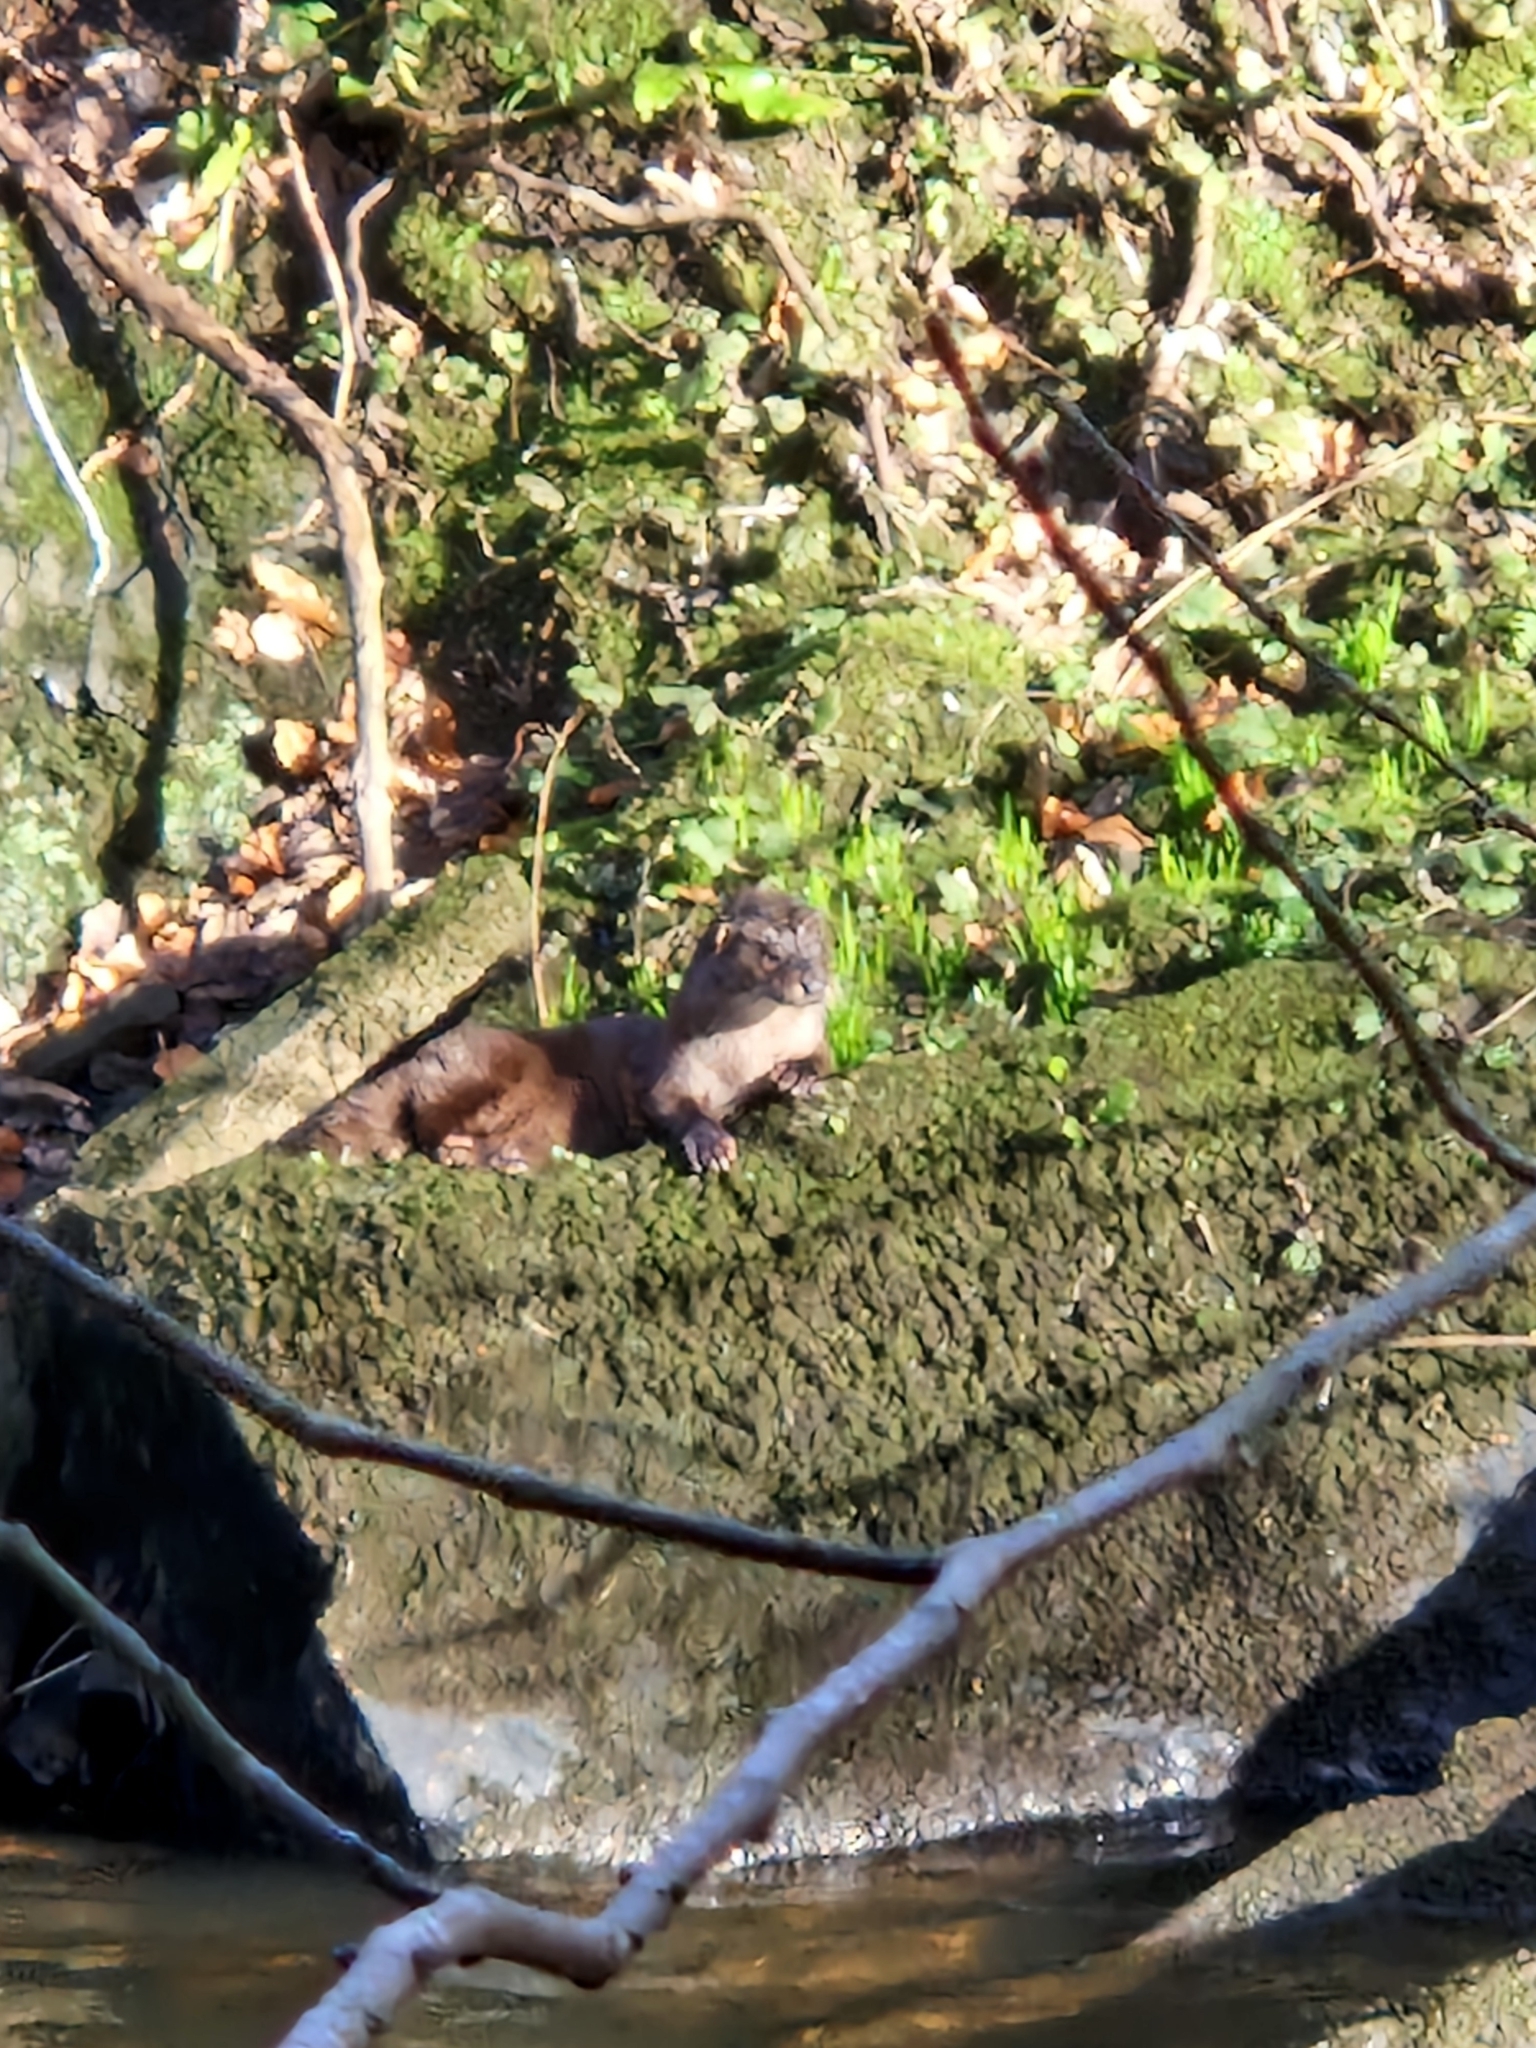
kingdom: Animalia
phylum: Chordata
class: Mammalia
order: Carnivora
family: Mustelidae
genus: Lutra
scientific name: Lutra lutra
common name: European otter
